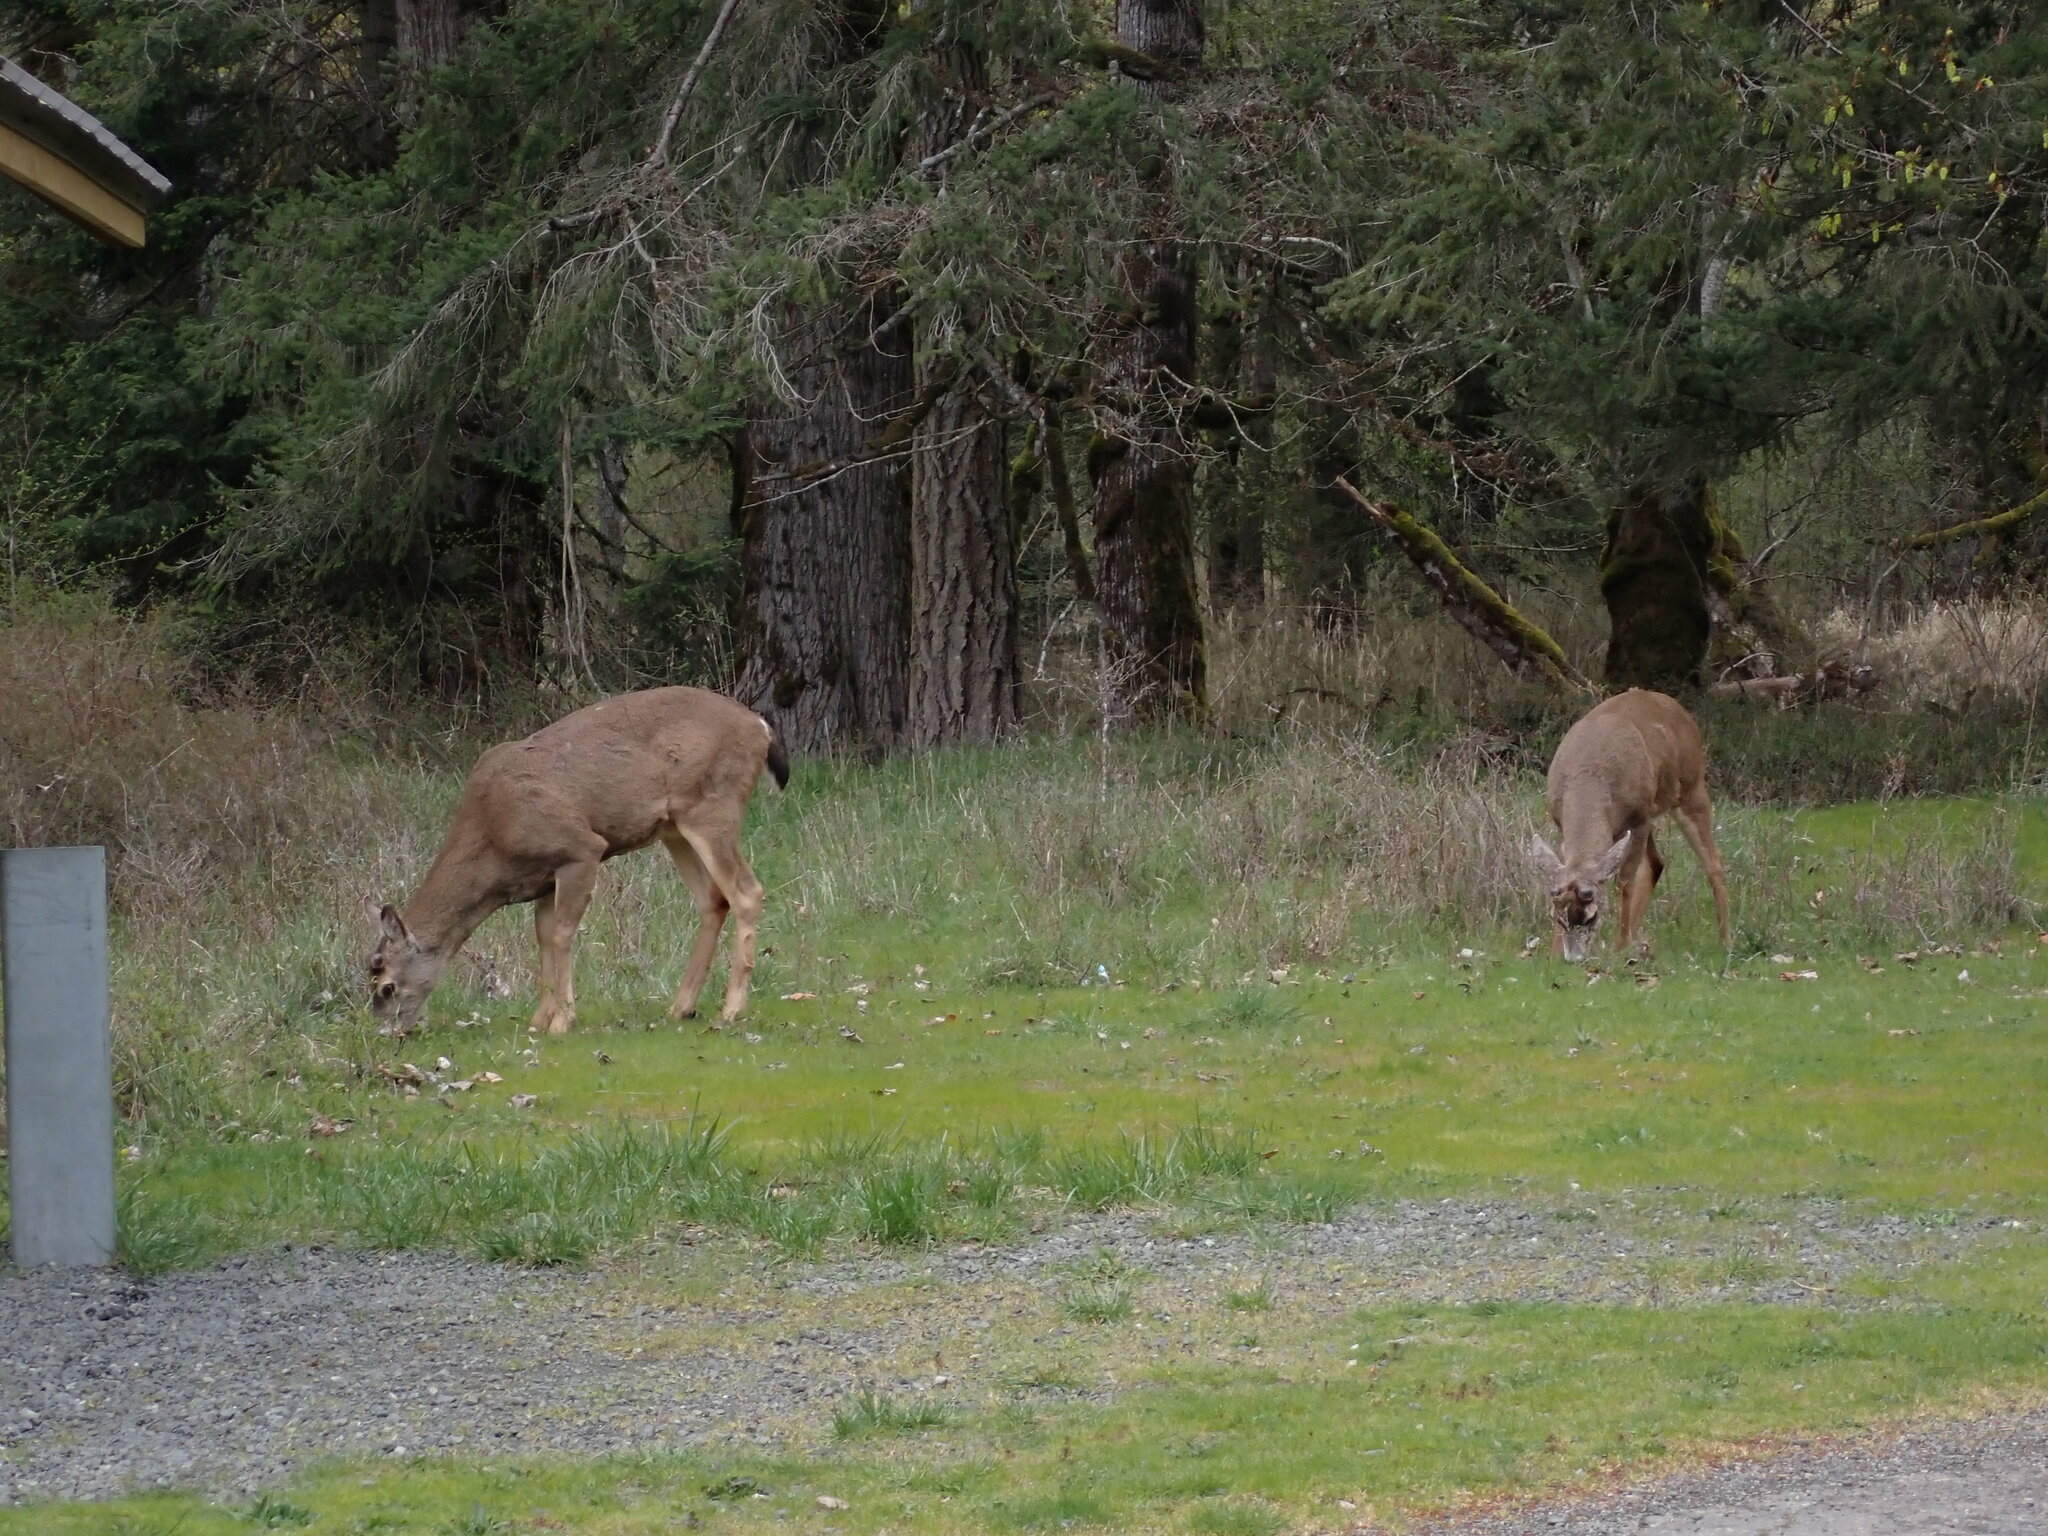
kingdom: Animalia
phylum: Chordata
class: Mammalia
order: Artiodactyla
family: Cervidae
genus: Odocoileus
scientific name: Odocoileus hemionus
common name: Mule deer
